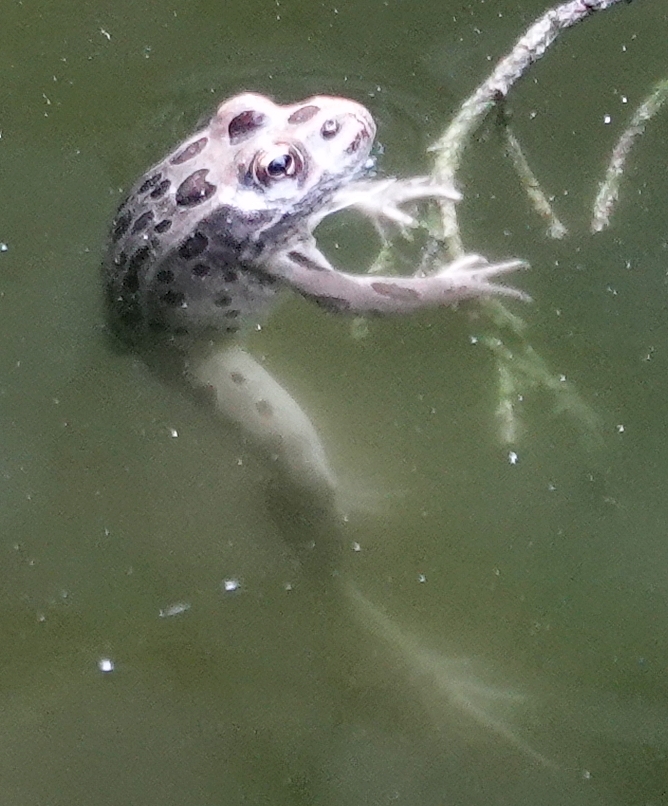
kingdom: Animalia
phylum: Chordata
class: Amphibia
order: Anura
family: Ranidae
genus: Lithobates
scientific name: Lithobates pipiens
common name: Northern leopard frog
